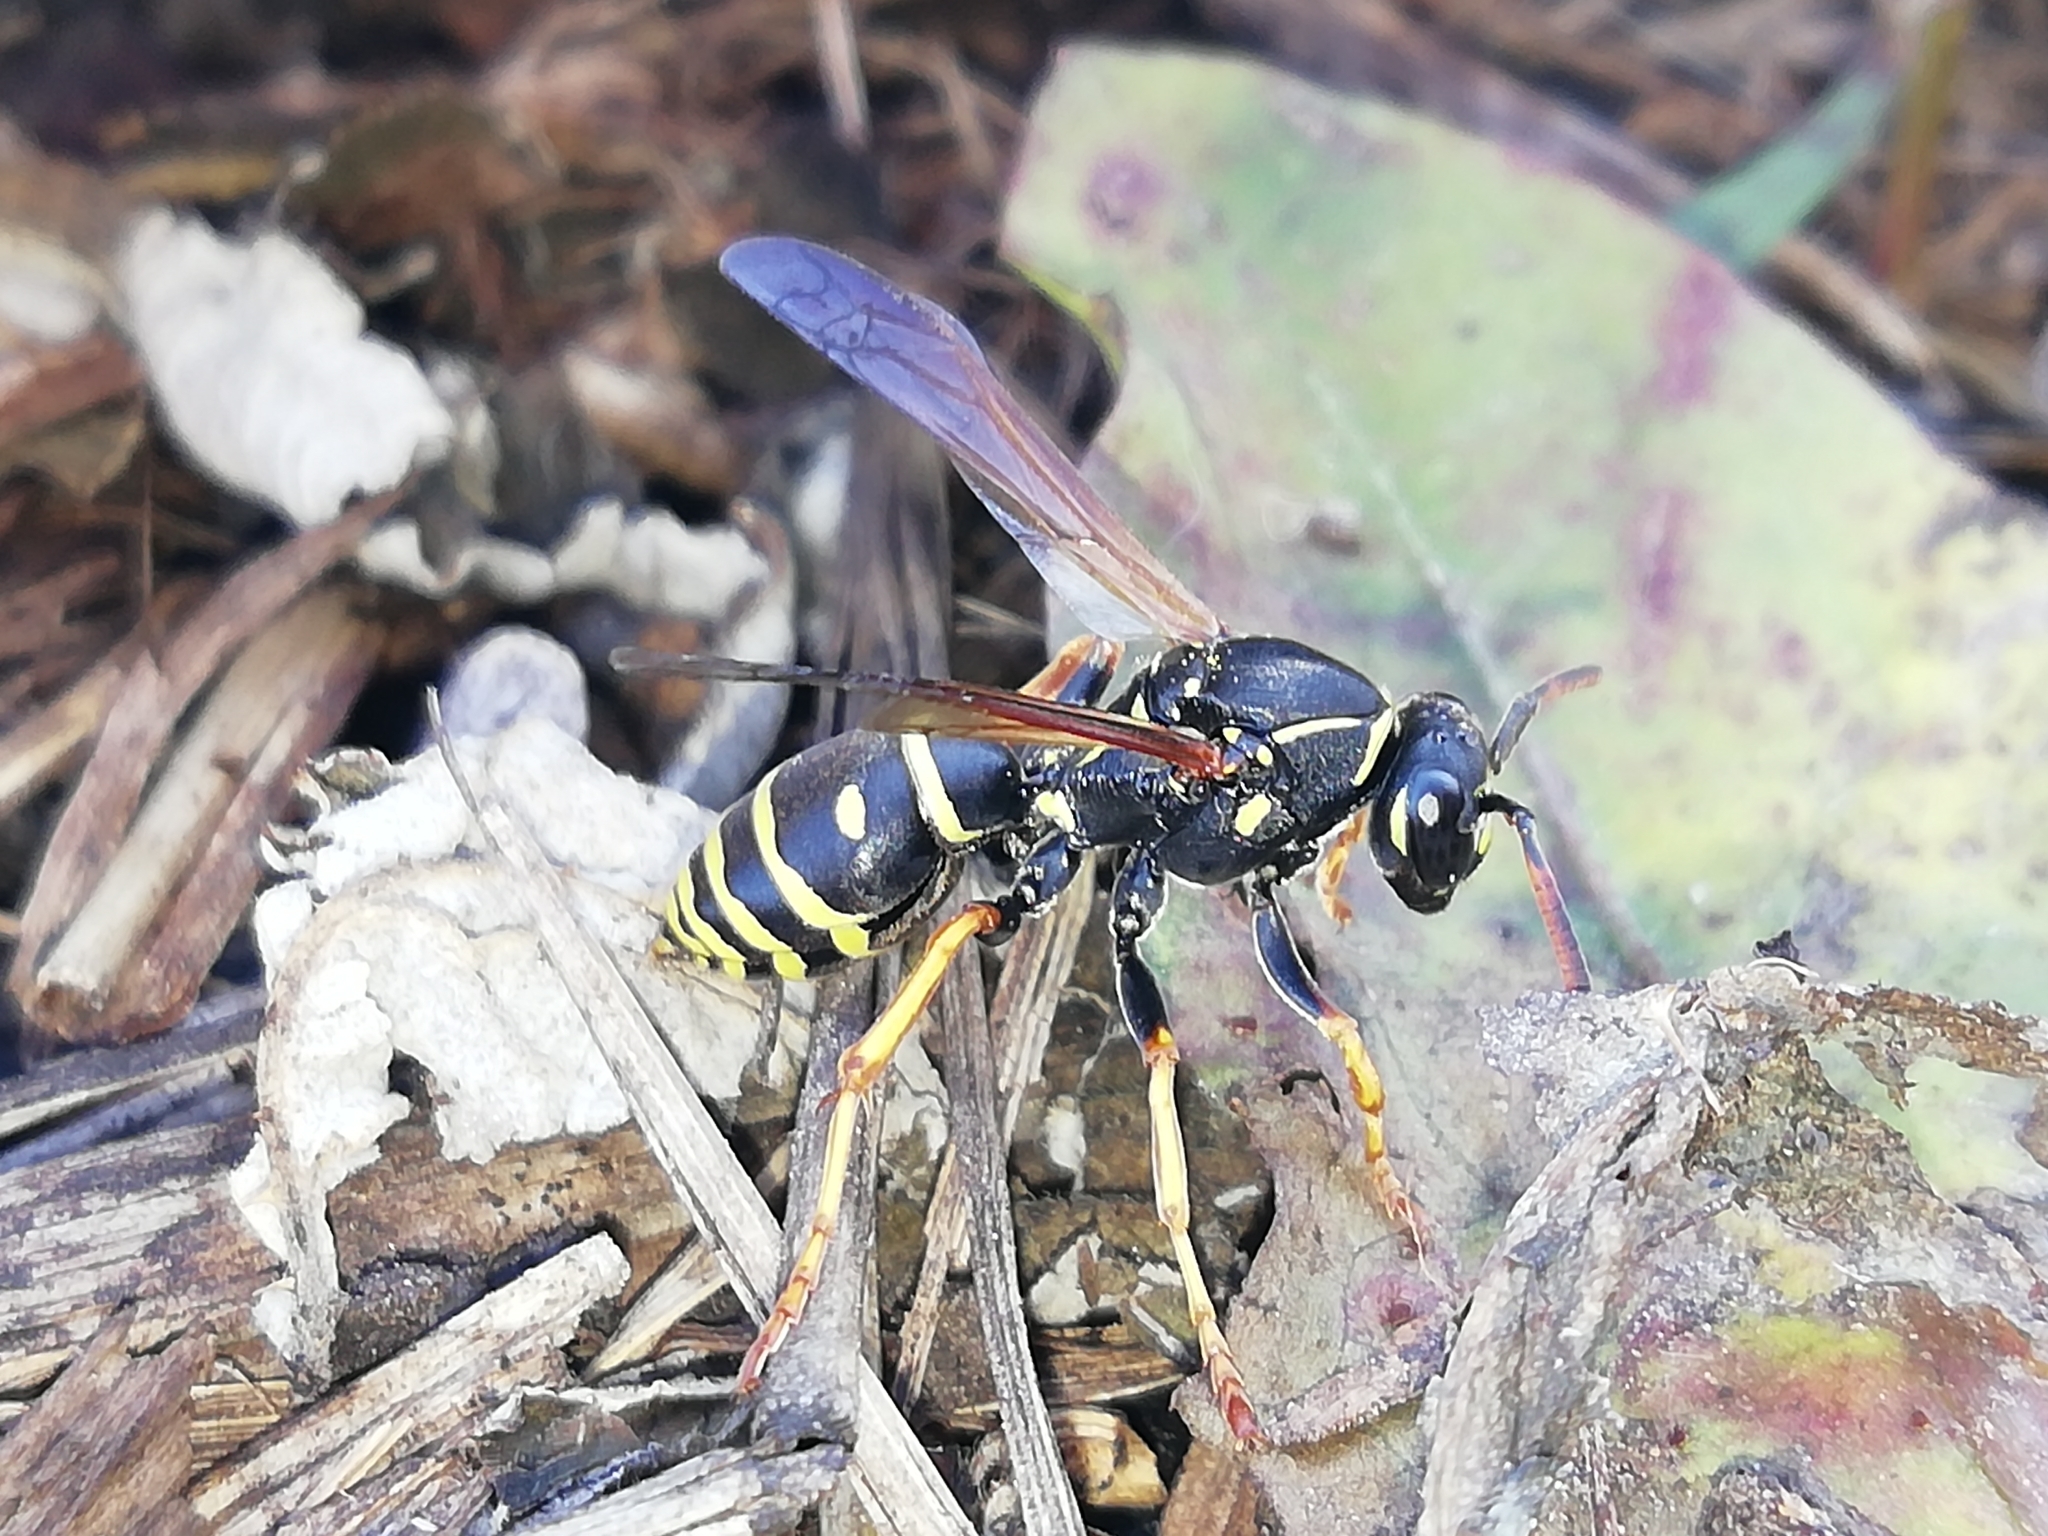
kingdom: Animalia
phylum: Arthropoda
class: Insecta
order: Hymenoptera
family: Eumenidae
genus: Polistes
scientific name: Polistes nimpha
